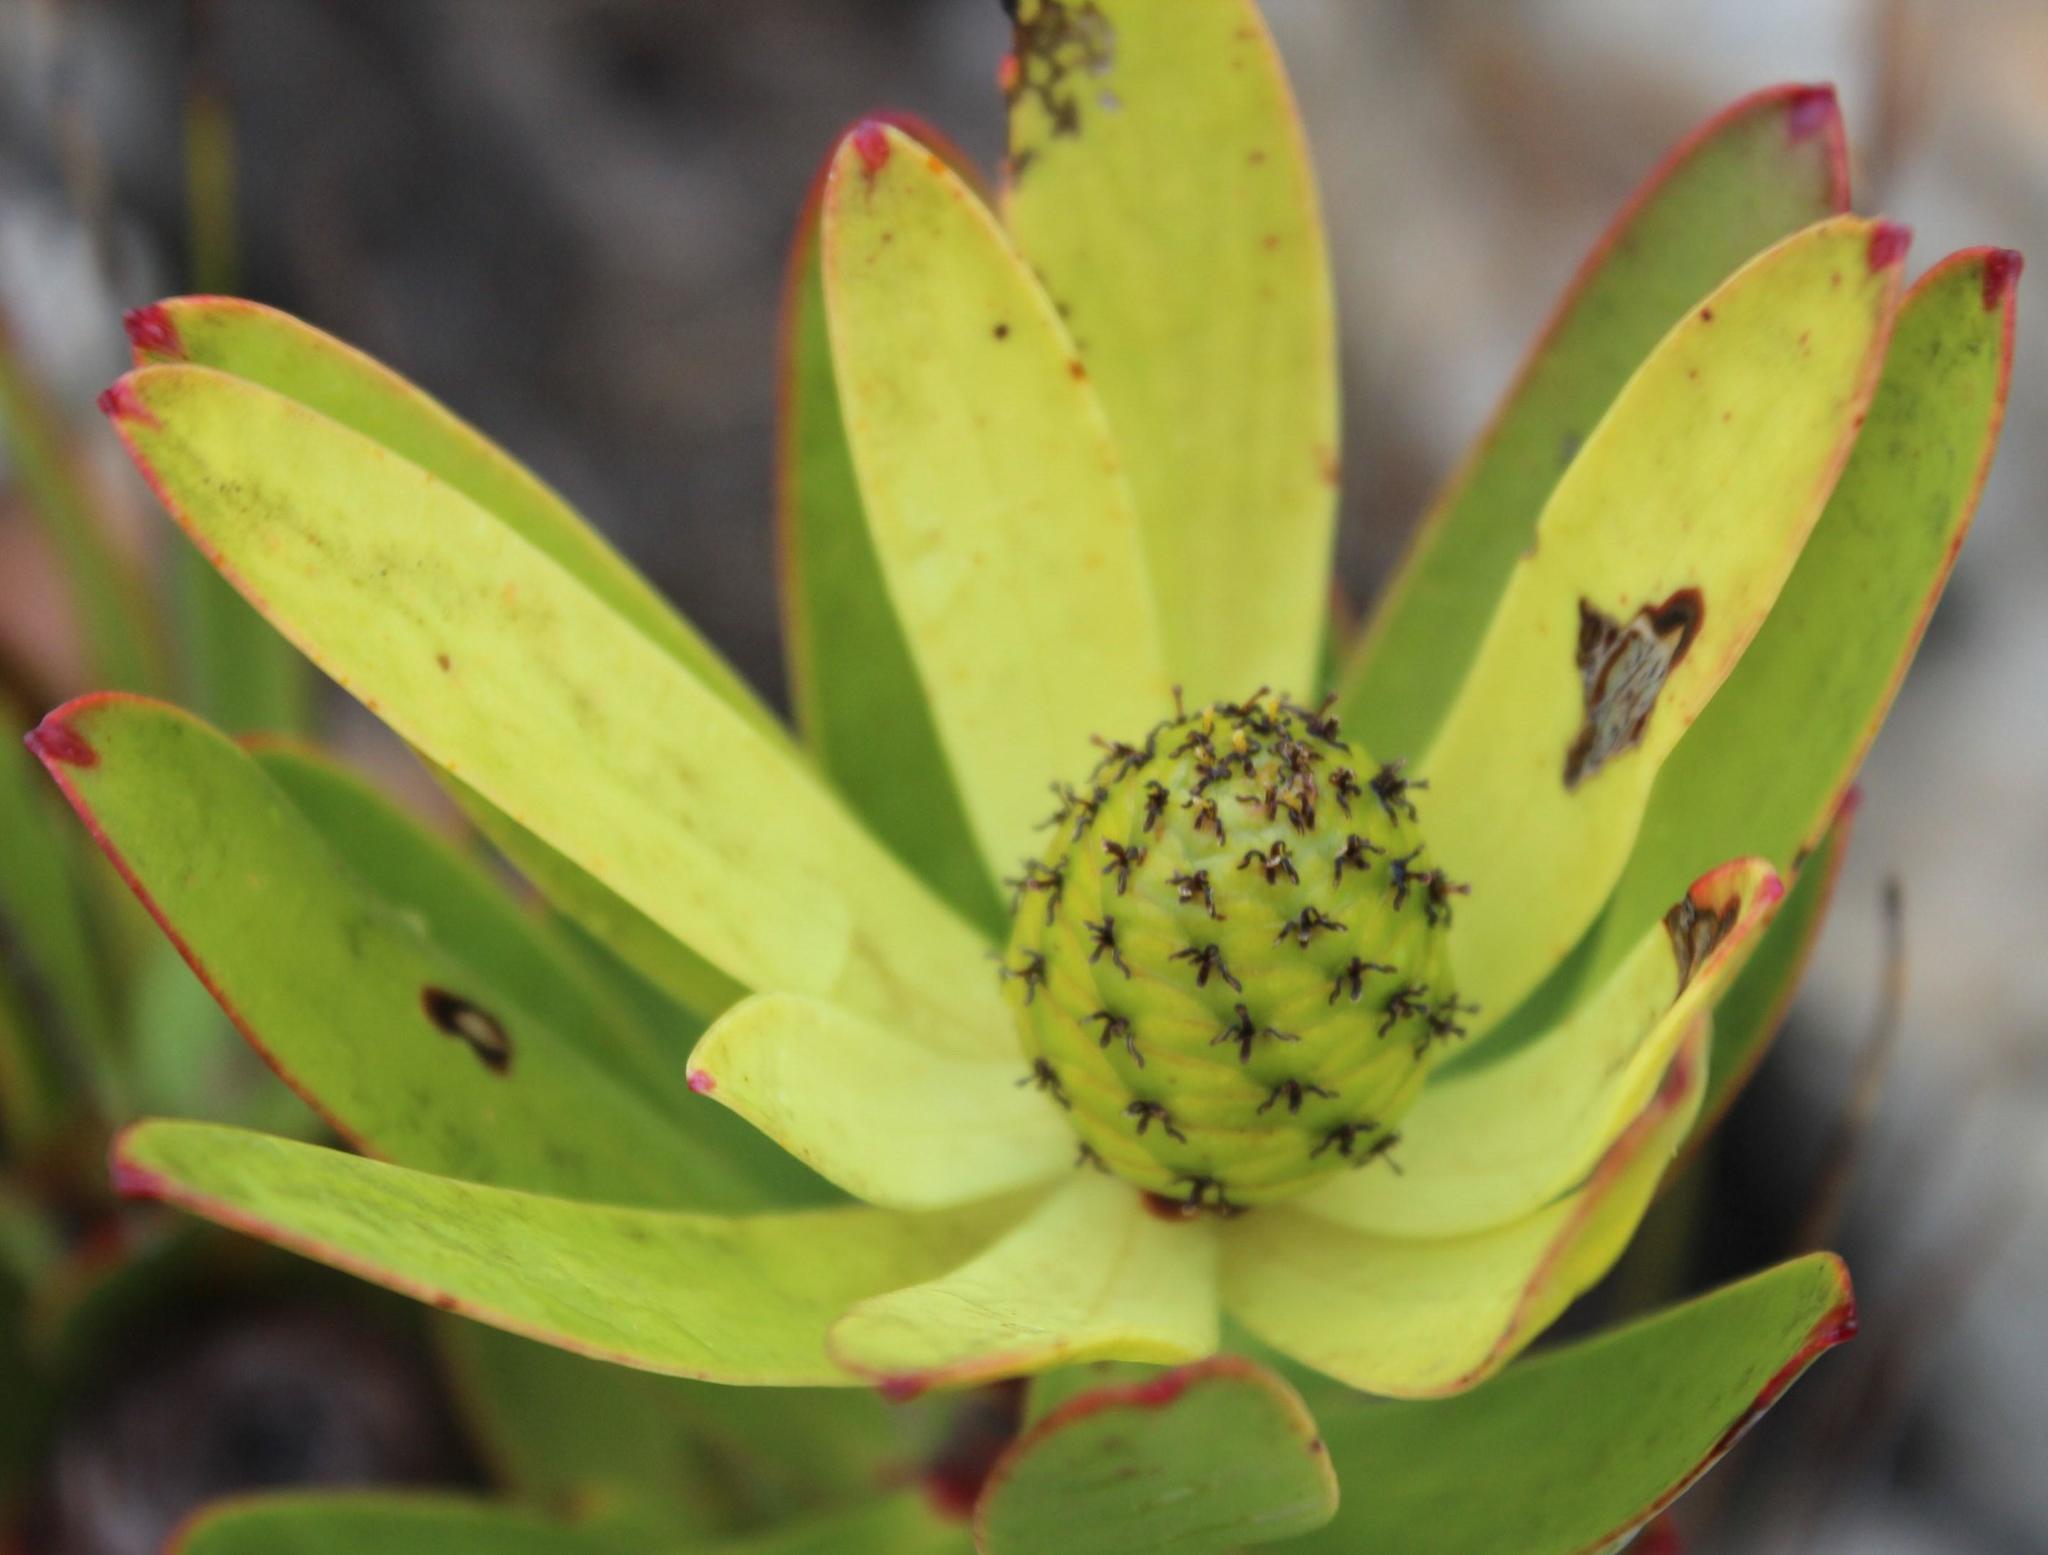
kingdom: Plantae
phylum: Tracheophyta
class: Magnoliopsida
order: Proteales
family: Proteaceae
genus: Leucadendron
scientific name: Leucadendron gandogeri
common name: Broad-leaf conebush
